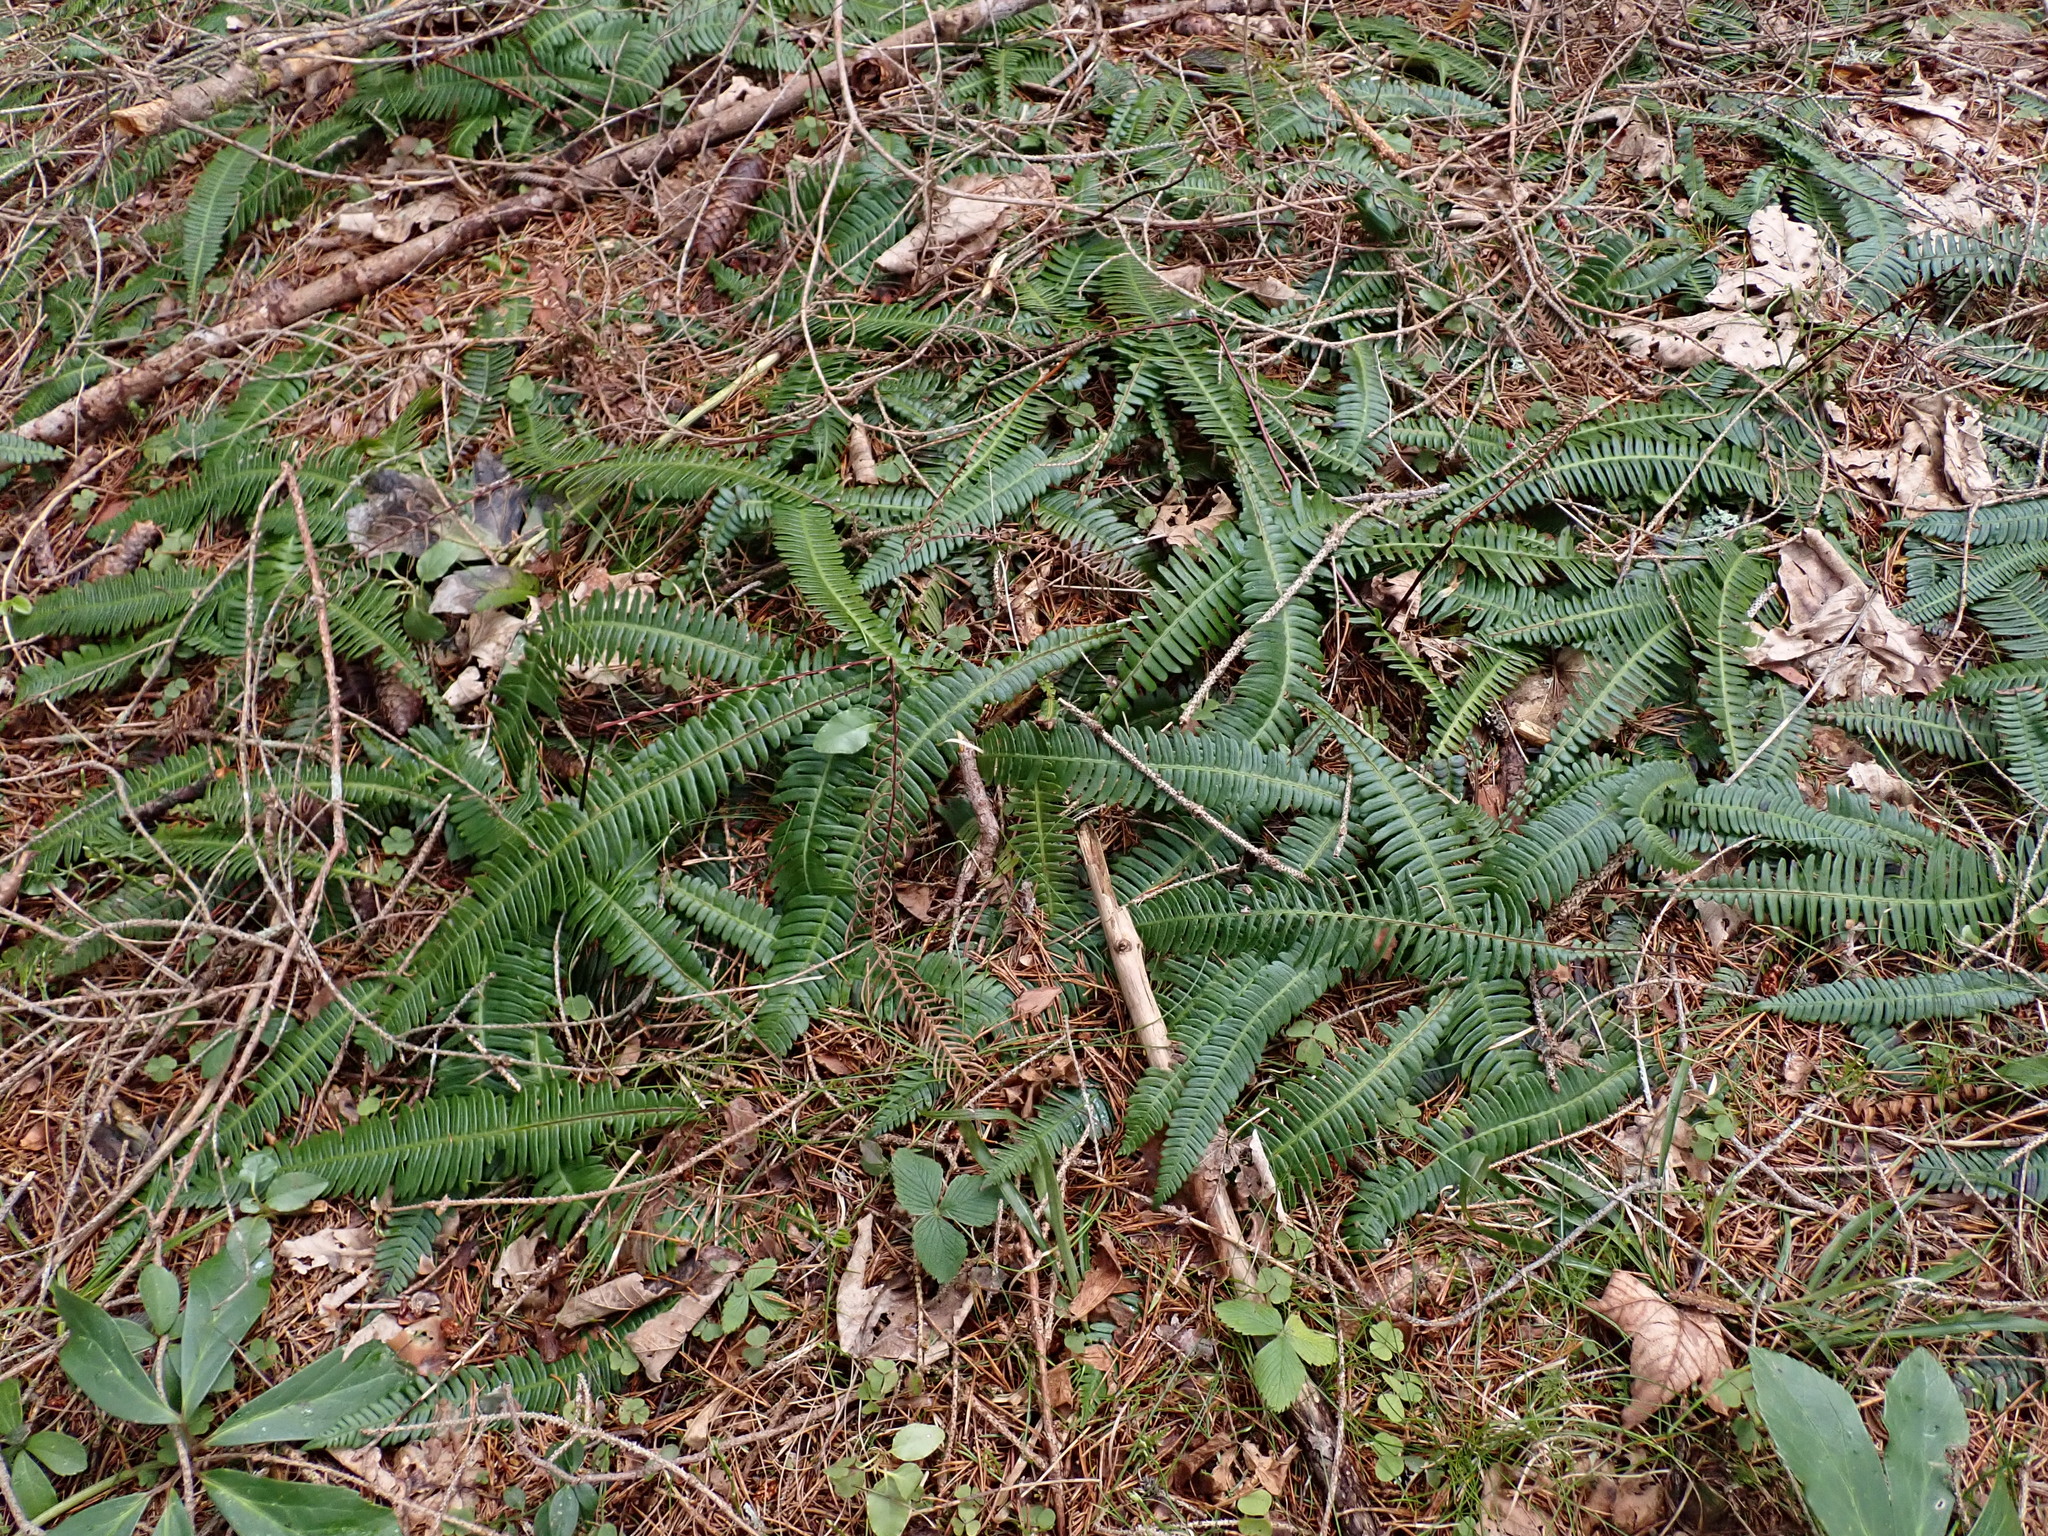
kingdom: Plantae
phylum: Tracheophyta
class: Polypodiopsida
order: Polypodiales
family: Blechnaceae
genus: Struthiopteris
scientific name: Struthiopteris spicant
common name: Deer fern
